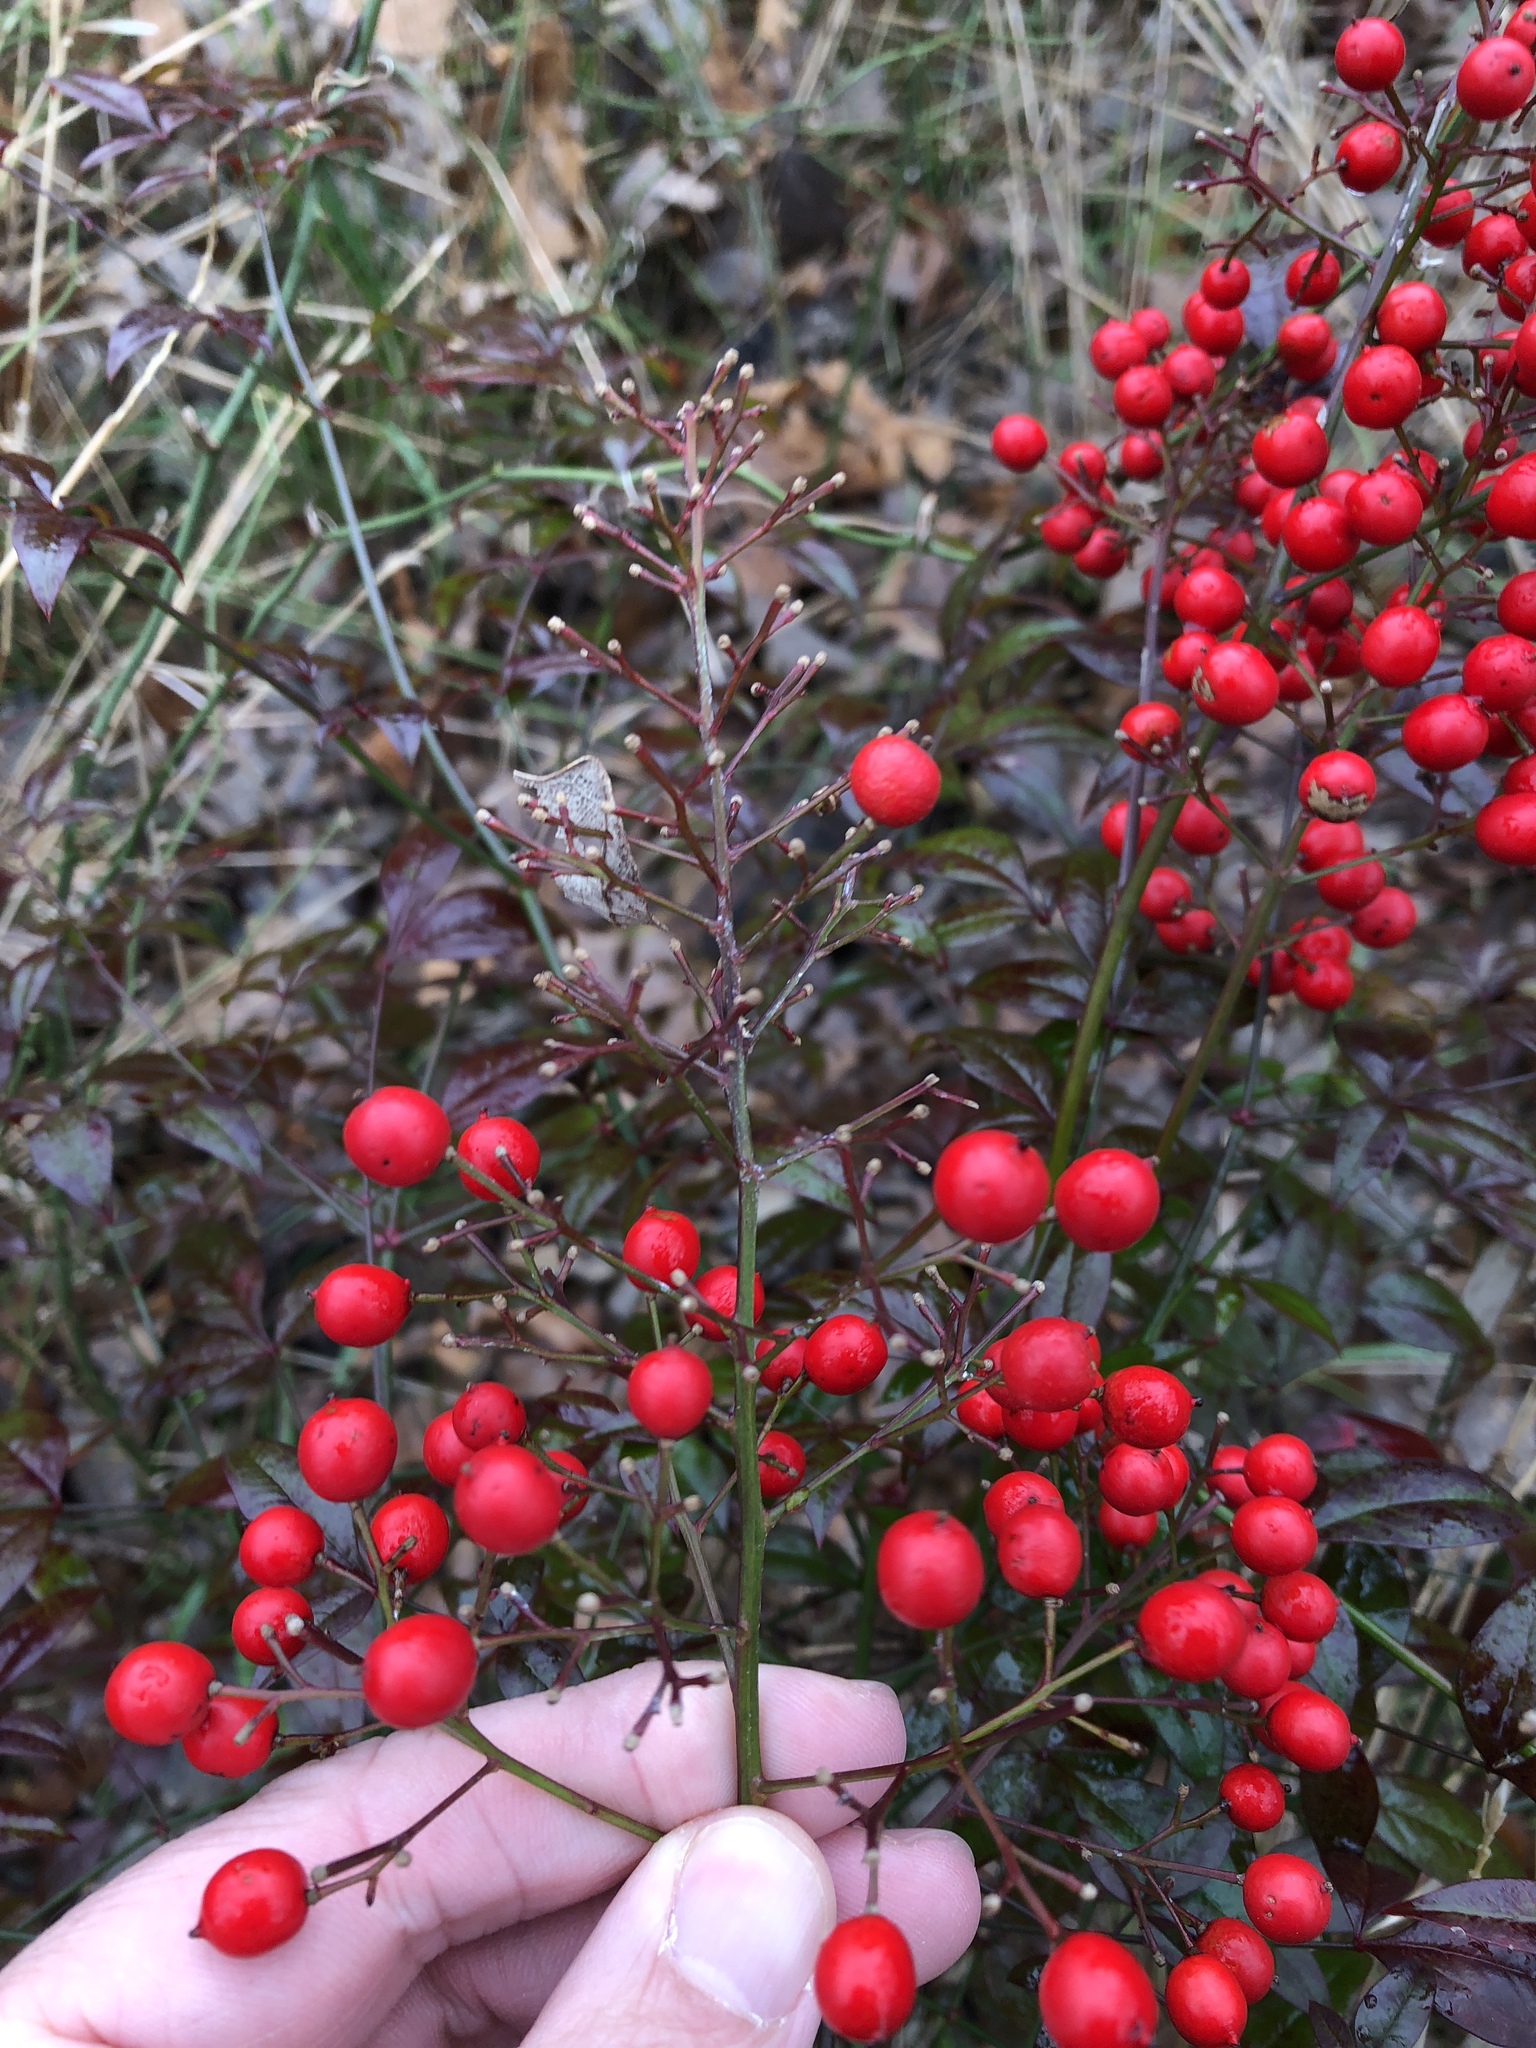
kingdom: Plantae
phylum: Tracheophyta
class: Magnoliopsida
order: Ranunculales
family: Berberidaceae
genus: Nandina
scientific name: Nandina domestica
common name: Sacred bamboo
